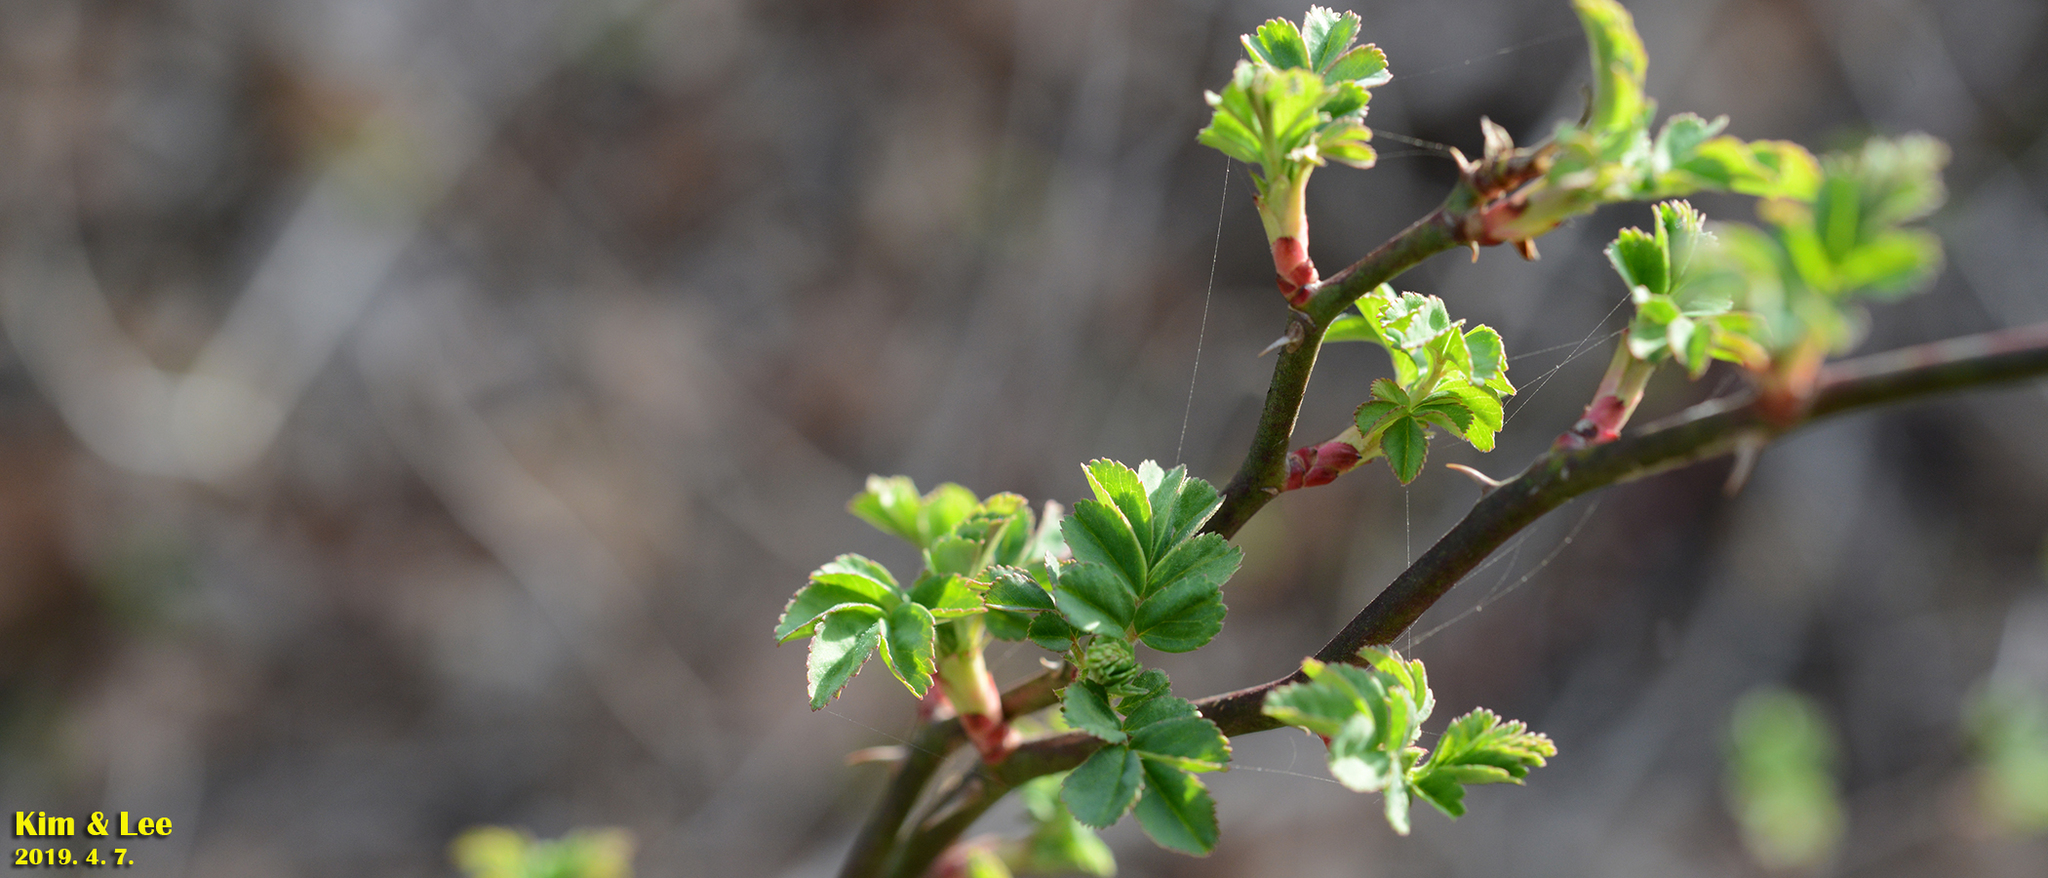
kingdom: Plantae
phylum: Tracheophyta
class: Magnoliopsida
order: Rosales
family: Rosaceae
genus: Rosa
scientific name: Rosa multiflora
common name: Multiflora rose
